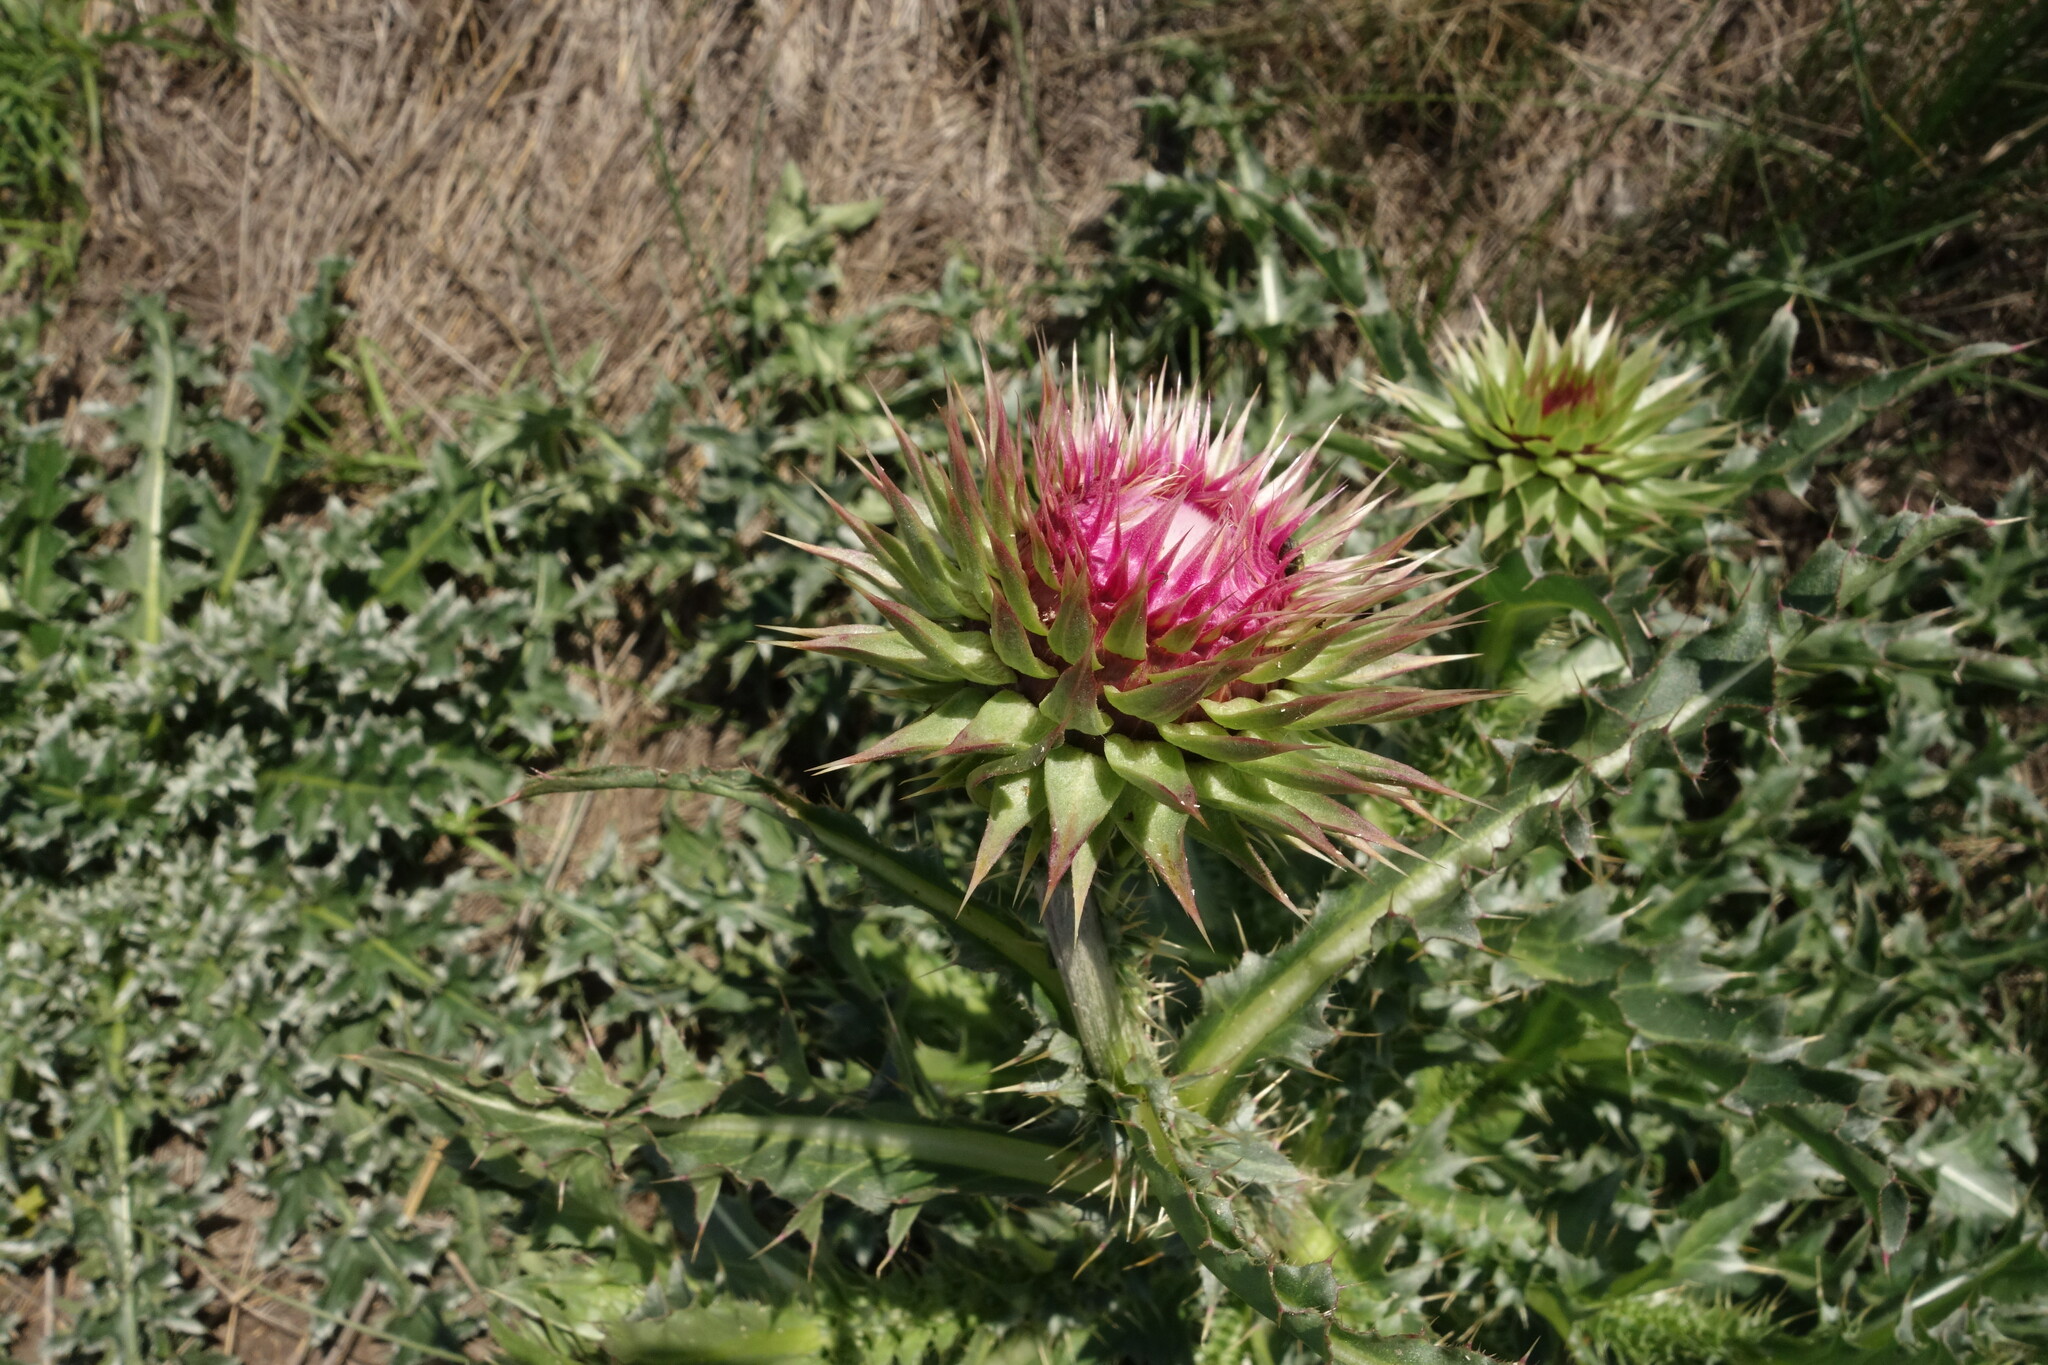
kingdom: Plantae
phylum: Tracheophyta
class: Magnoliopsida
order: Asterales
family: Asteraceae
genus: Carduus
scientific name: Carduus nutans
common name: Musk thistle
